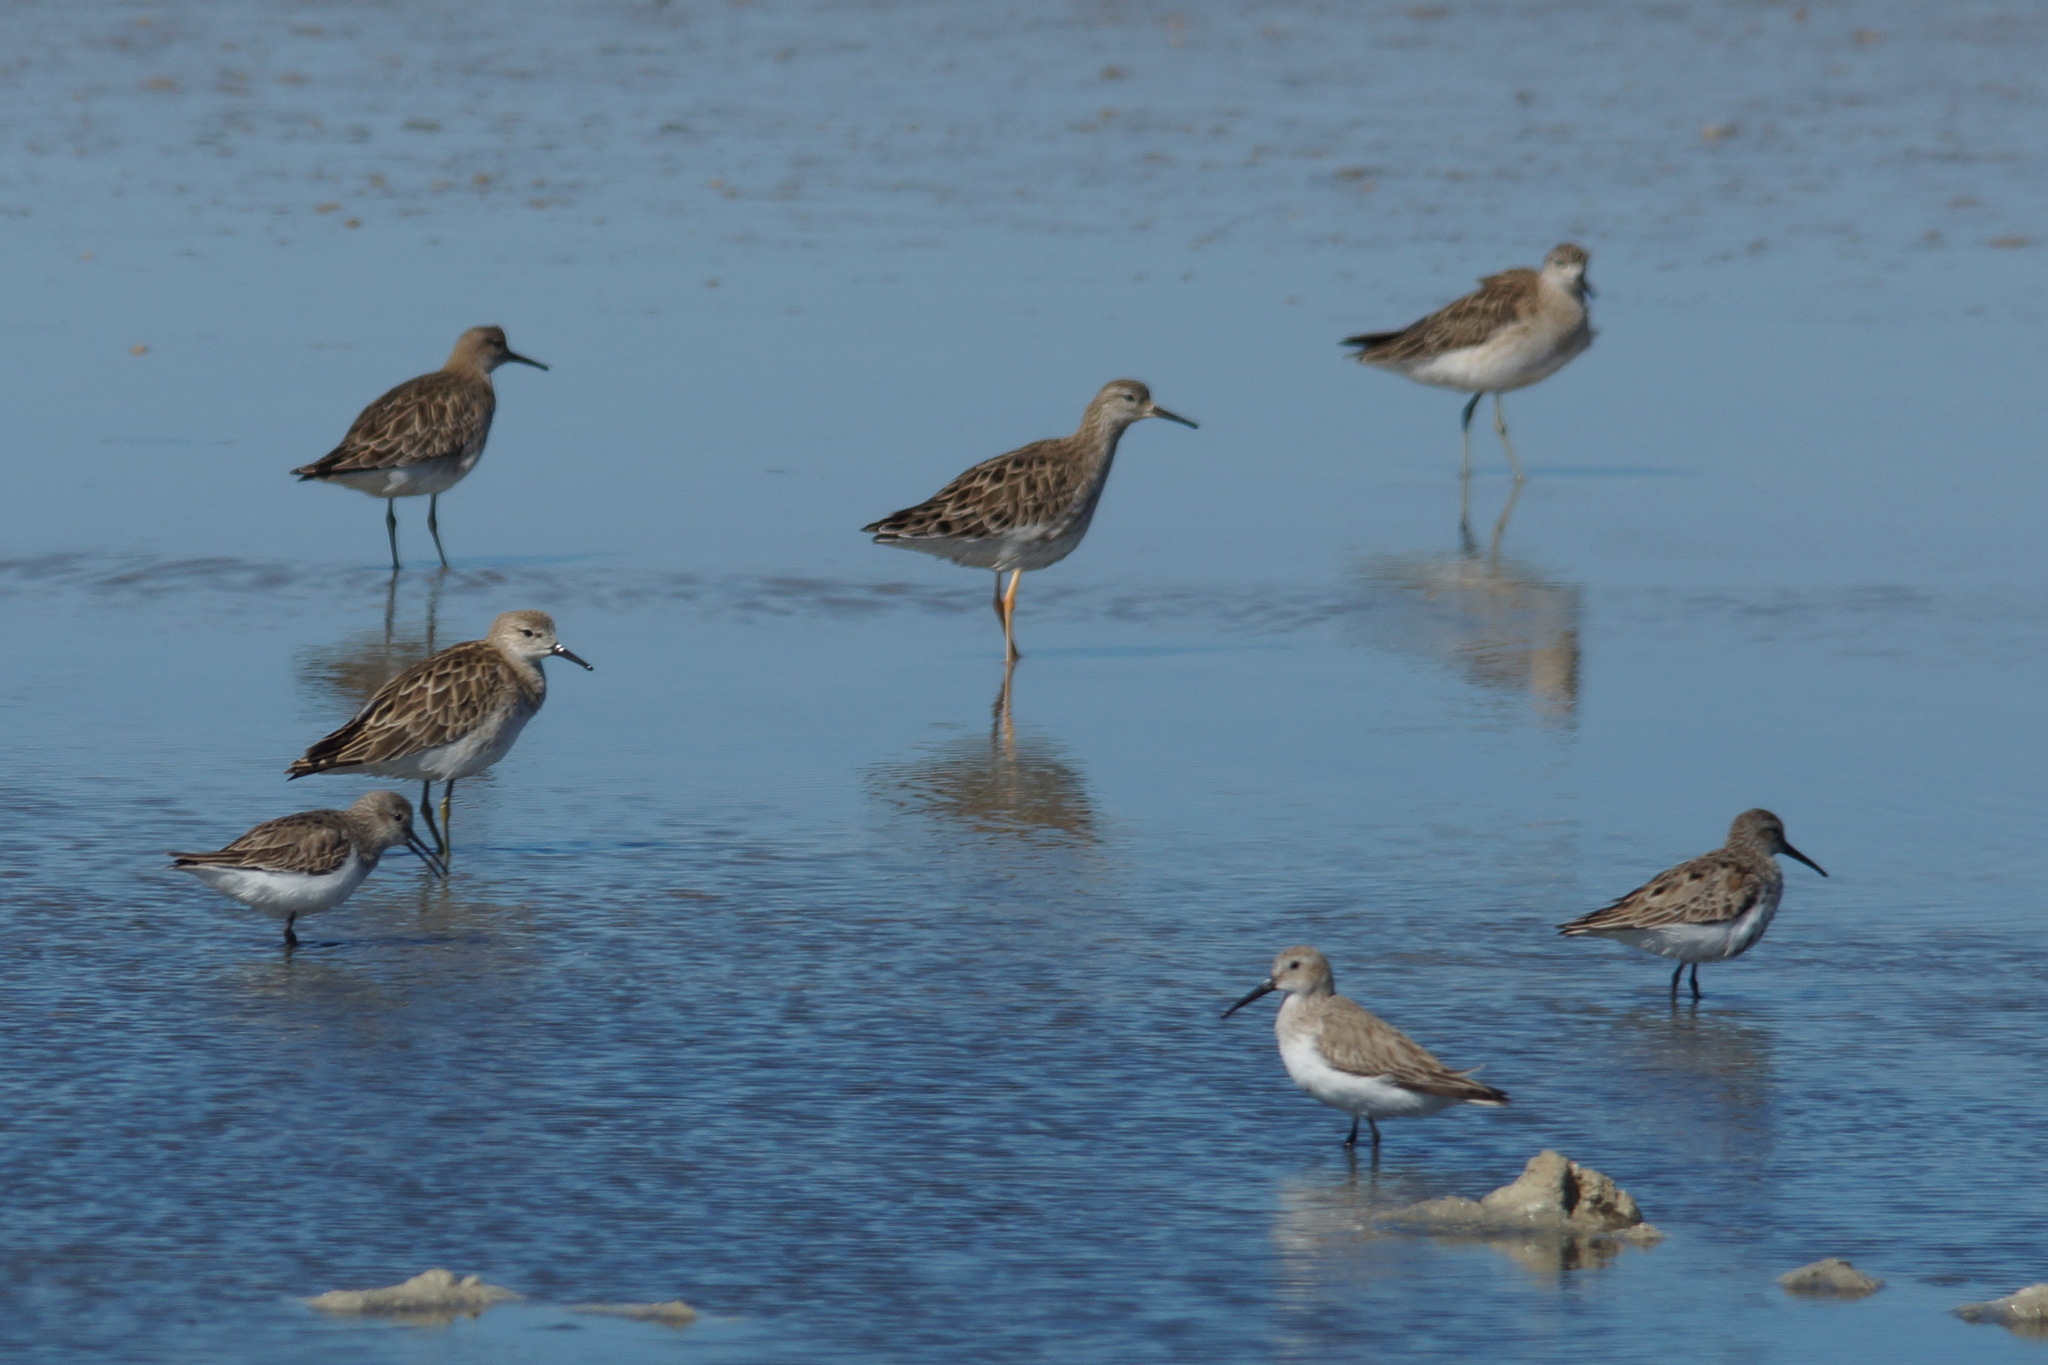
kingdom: Animalia
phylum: Chordata
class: Aves
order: Charadriiformes
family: Scolopacidae
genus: Calidris
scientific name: Calidris alpina
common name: Dunlin
